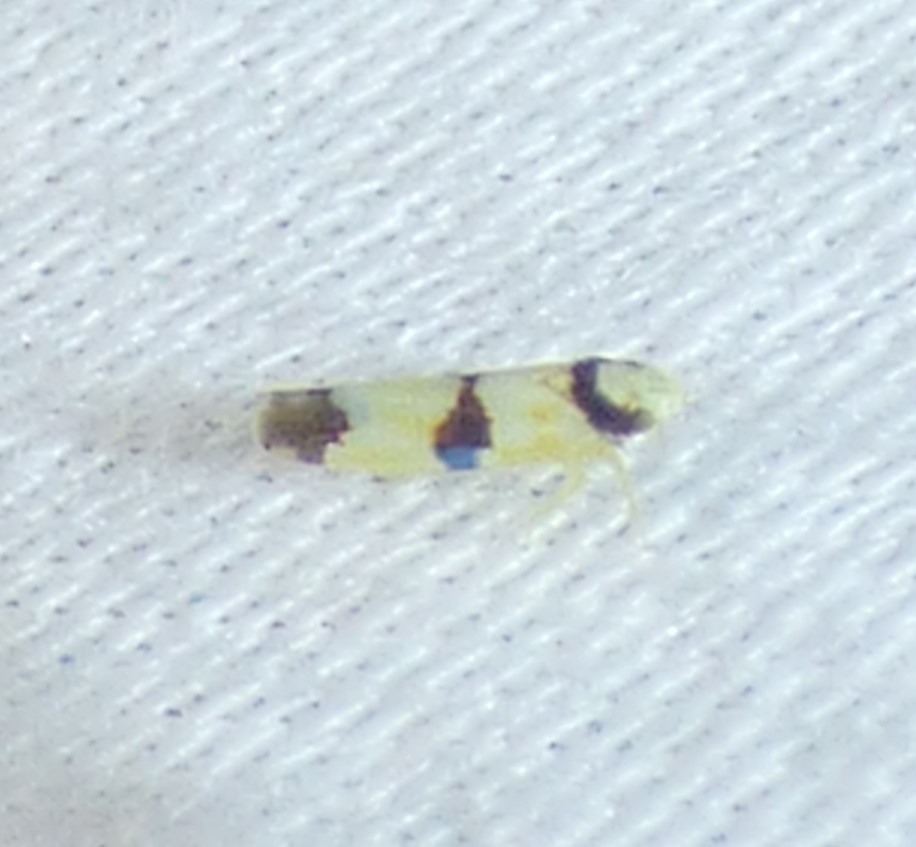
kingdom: Animalia
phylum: Arthropoda
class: Insecta
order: Hemiptera
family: Cicadellidae
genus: Erythroneura
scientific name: Erythroneura calycula
